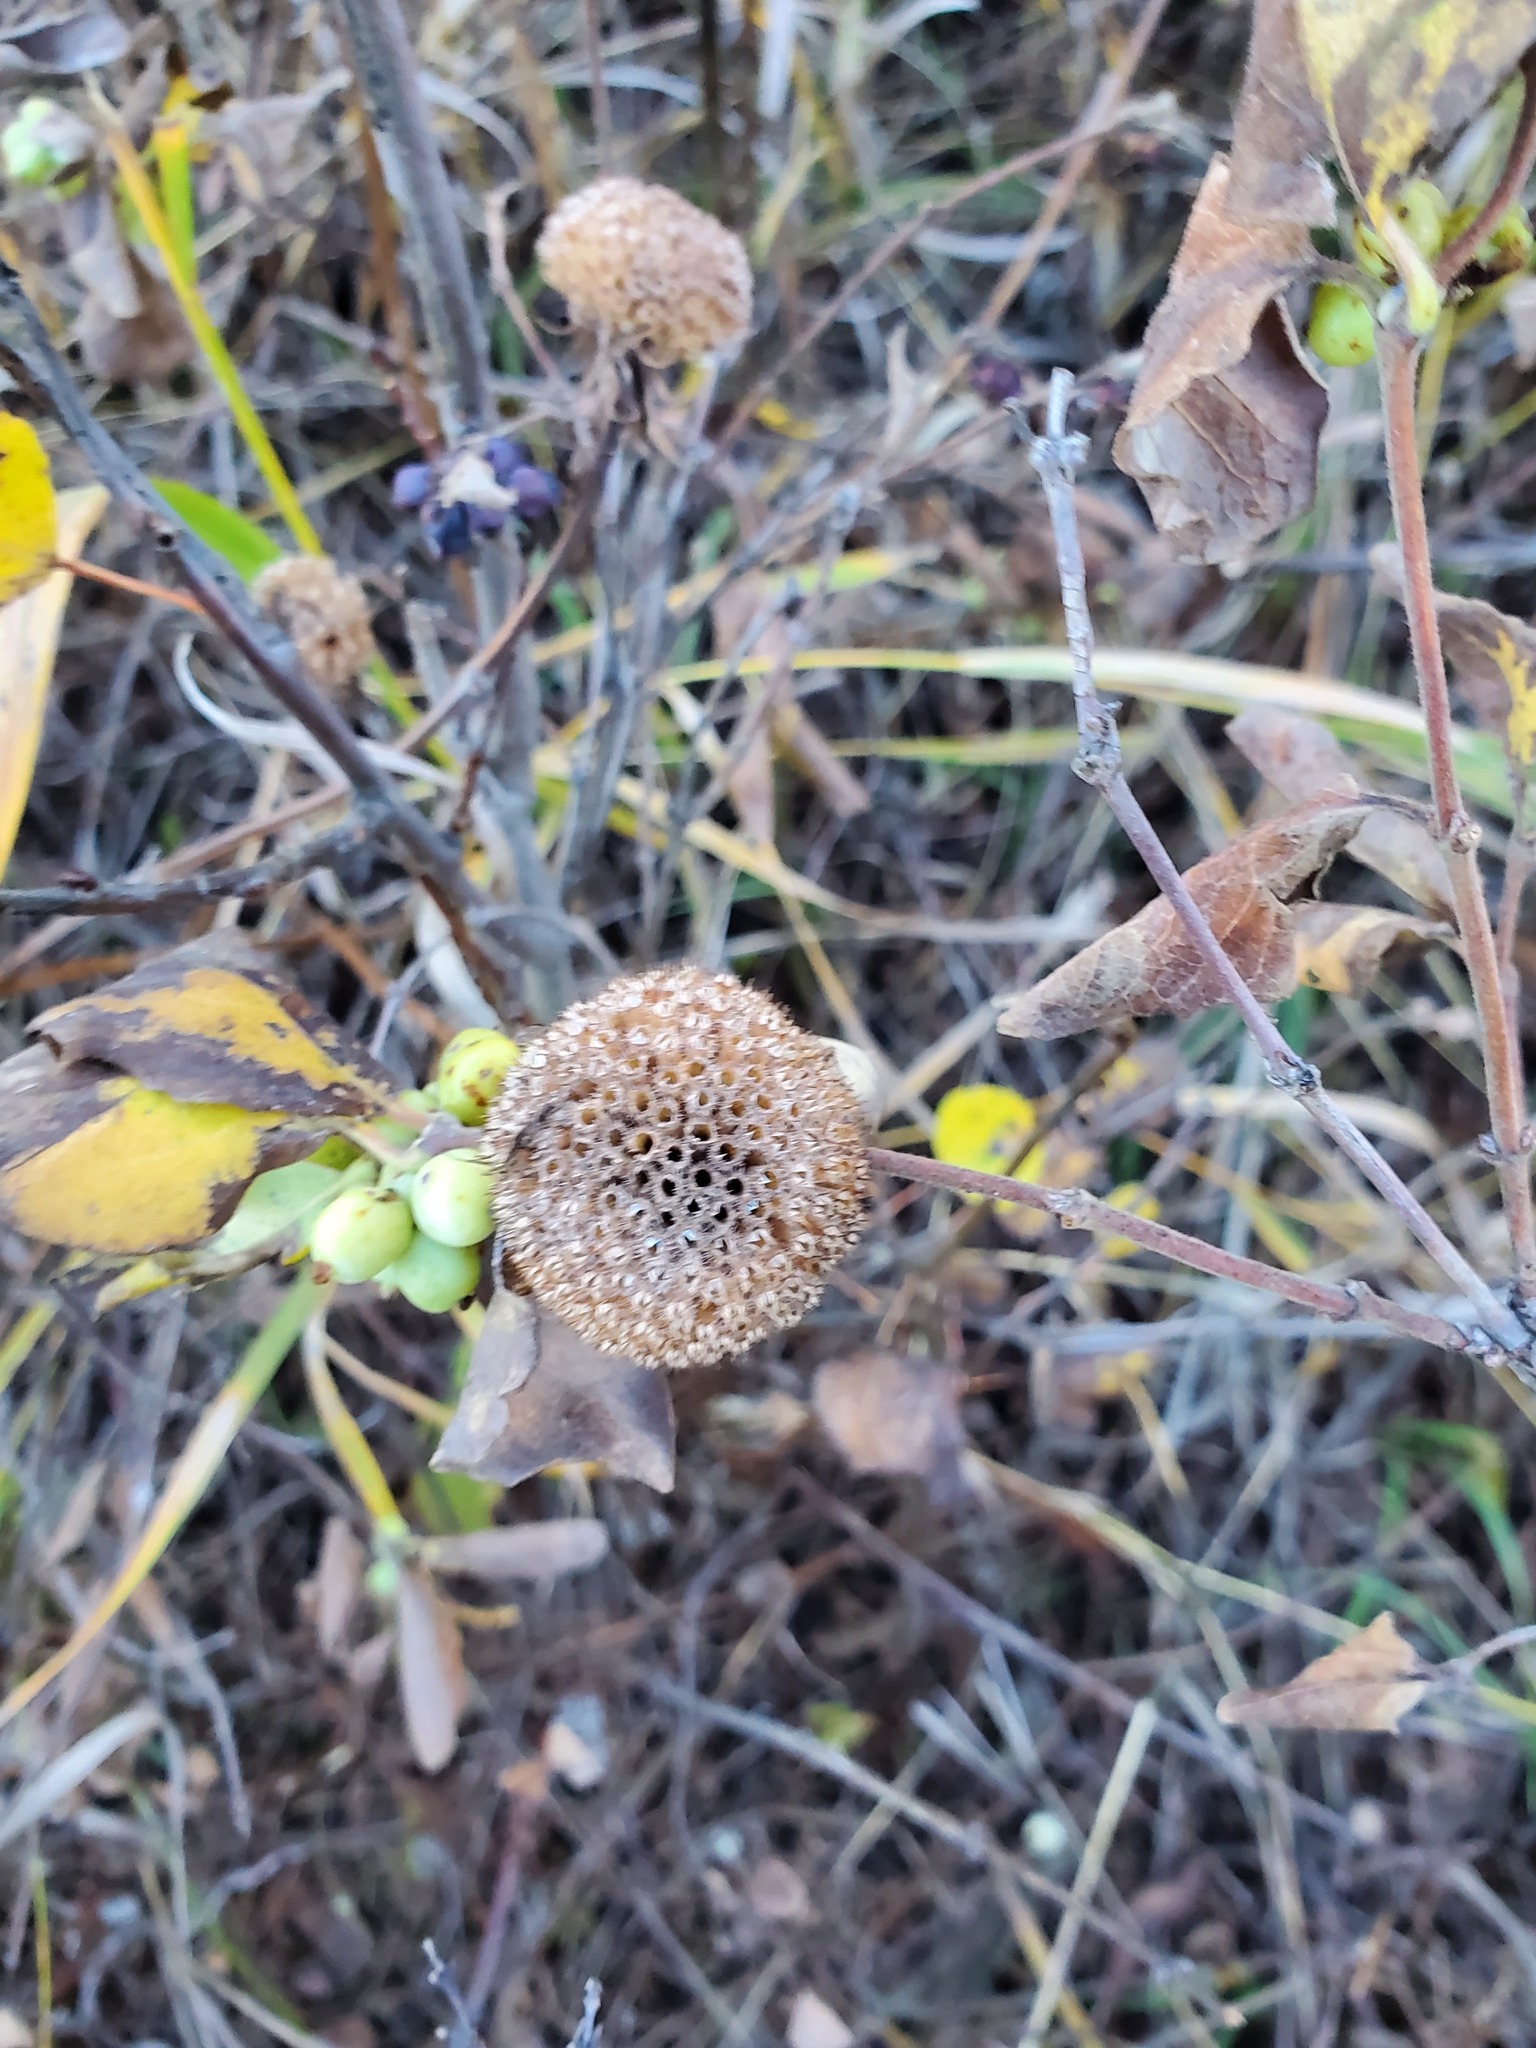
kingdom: Plantae
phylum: Tracheophyta
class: Magnoliopsida
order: Lamiales
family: Lamiaceae
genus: Monarda
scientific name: Monarda fistulosa
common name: Purple beebalm
